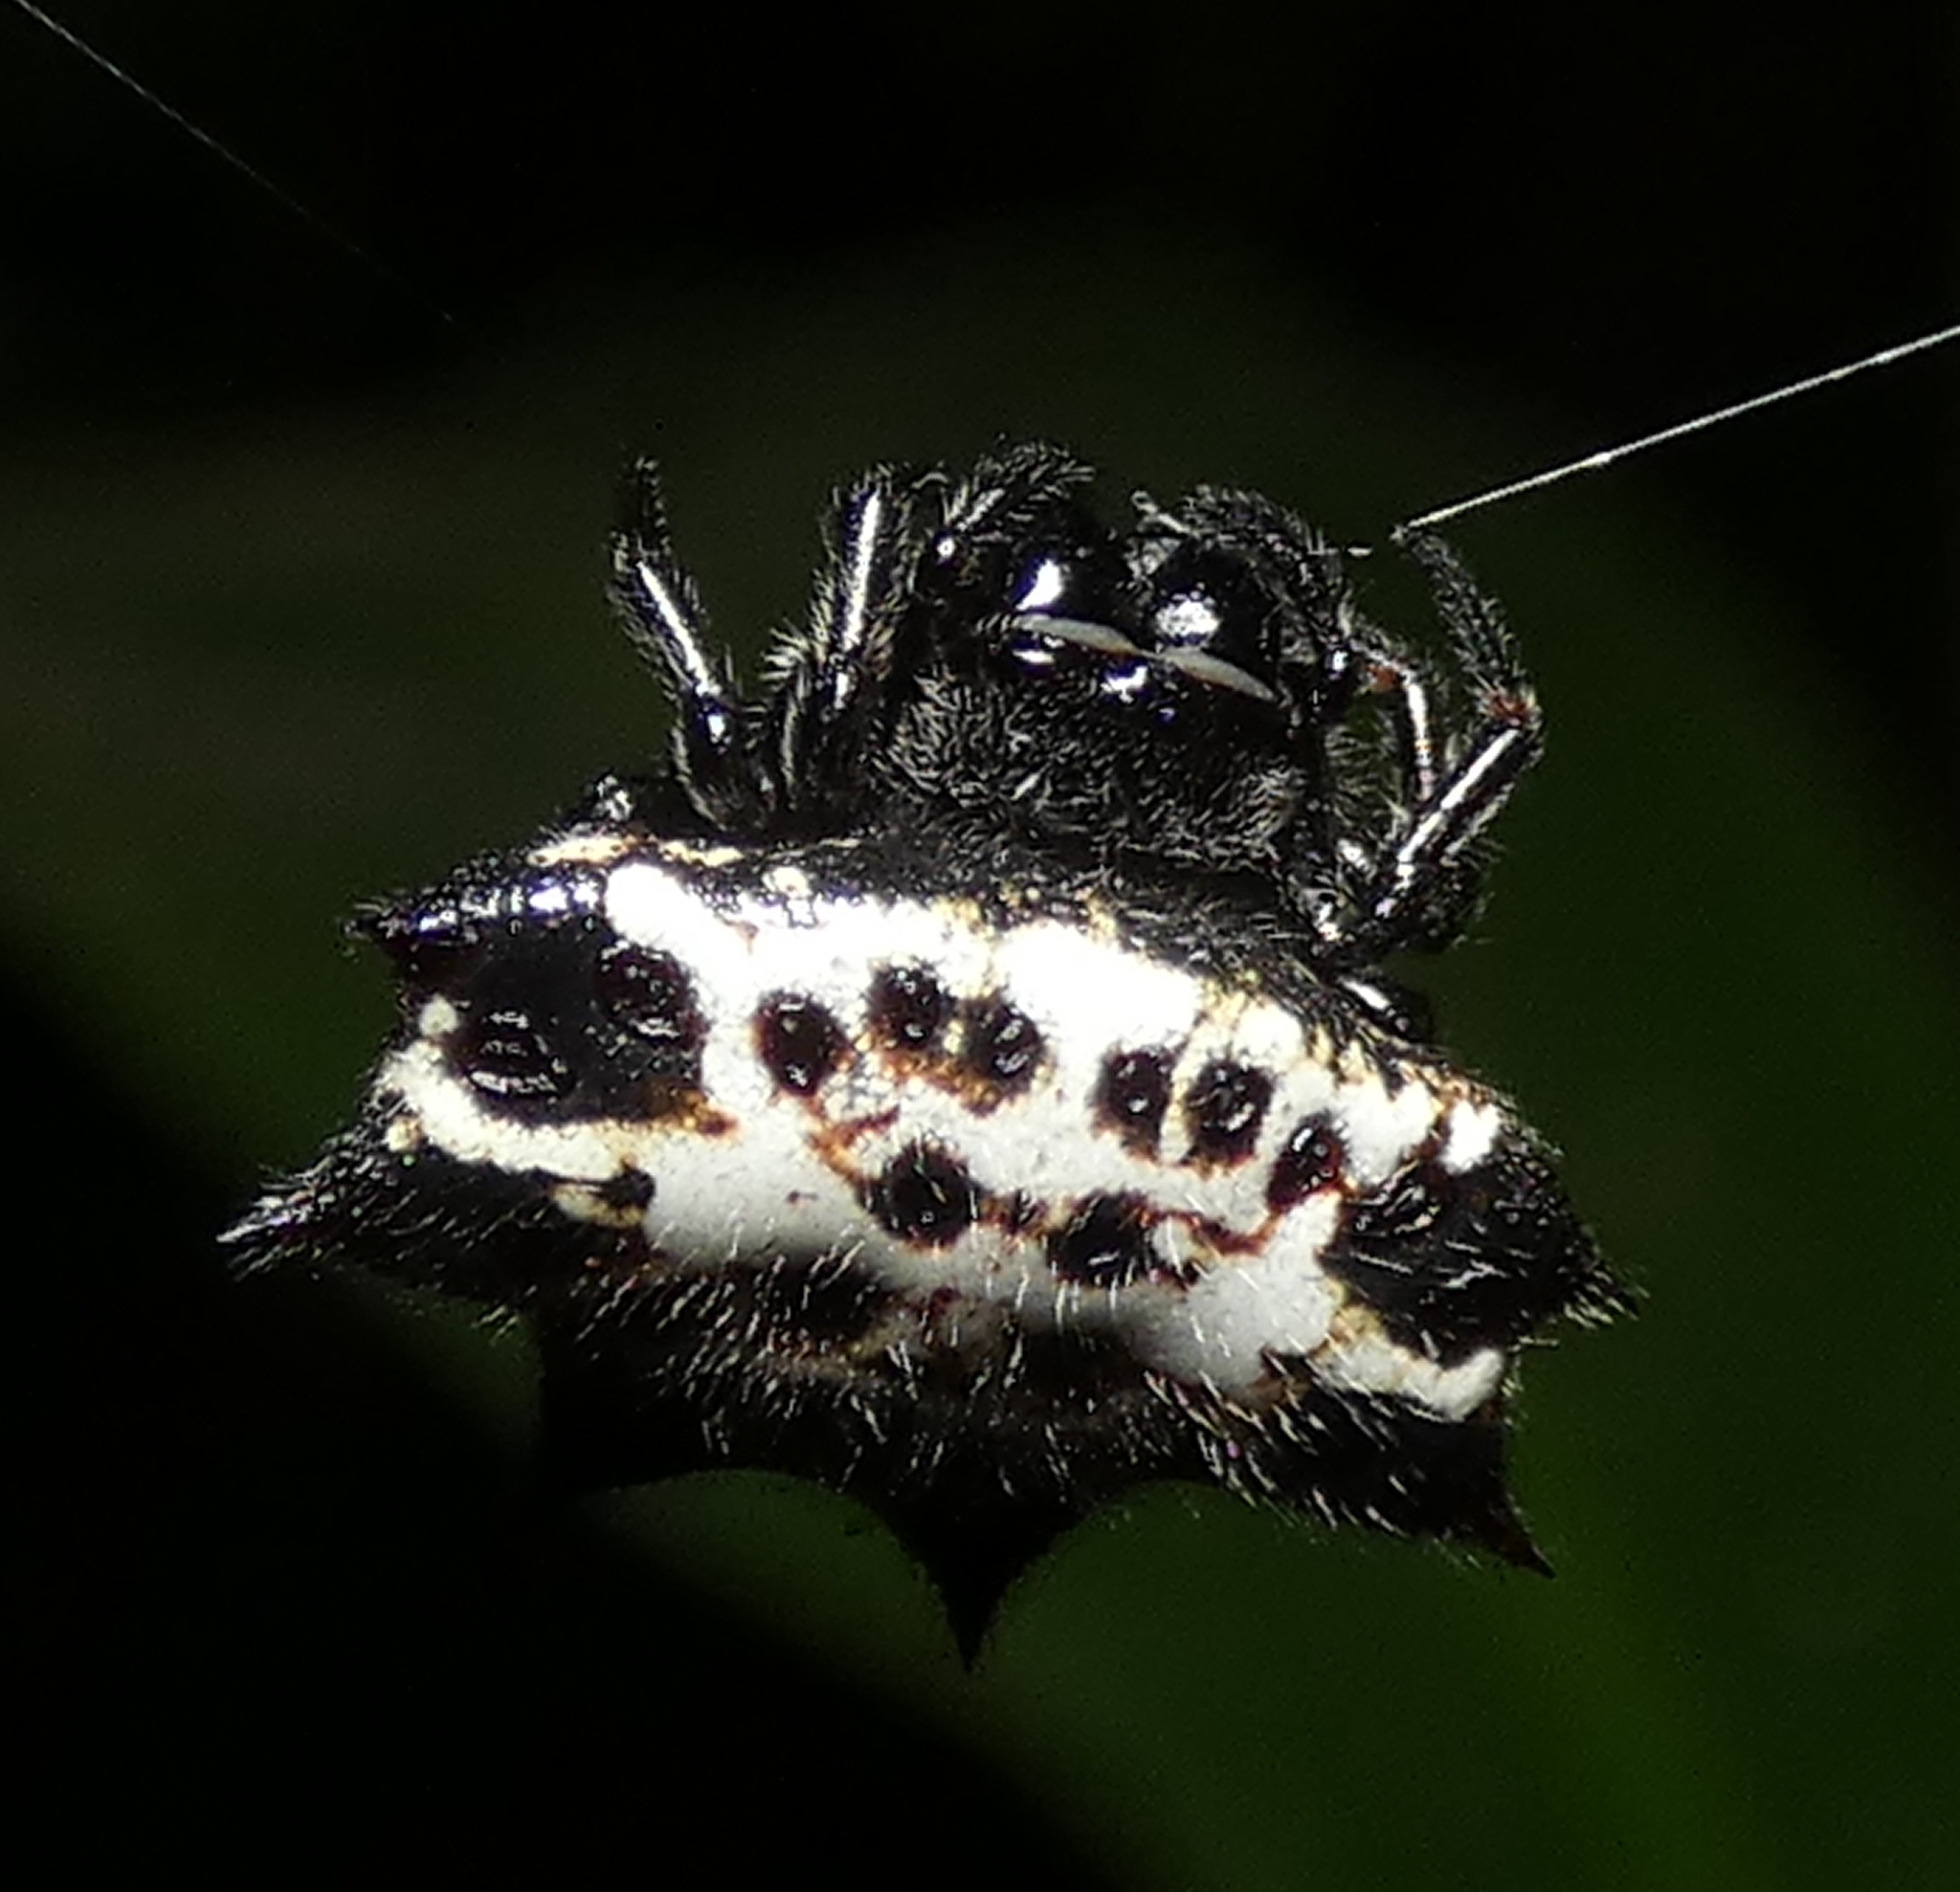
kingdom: Animalia
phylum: Arthropoda
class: Arachnida
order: Araneae
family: Araneidae
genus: Gasteracantha
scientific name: Gasteracantha cancriformis
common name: Orb weavers
